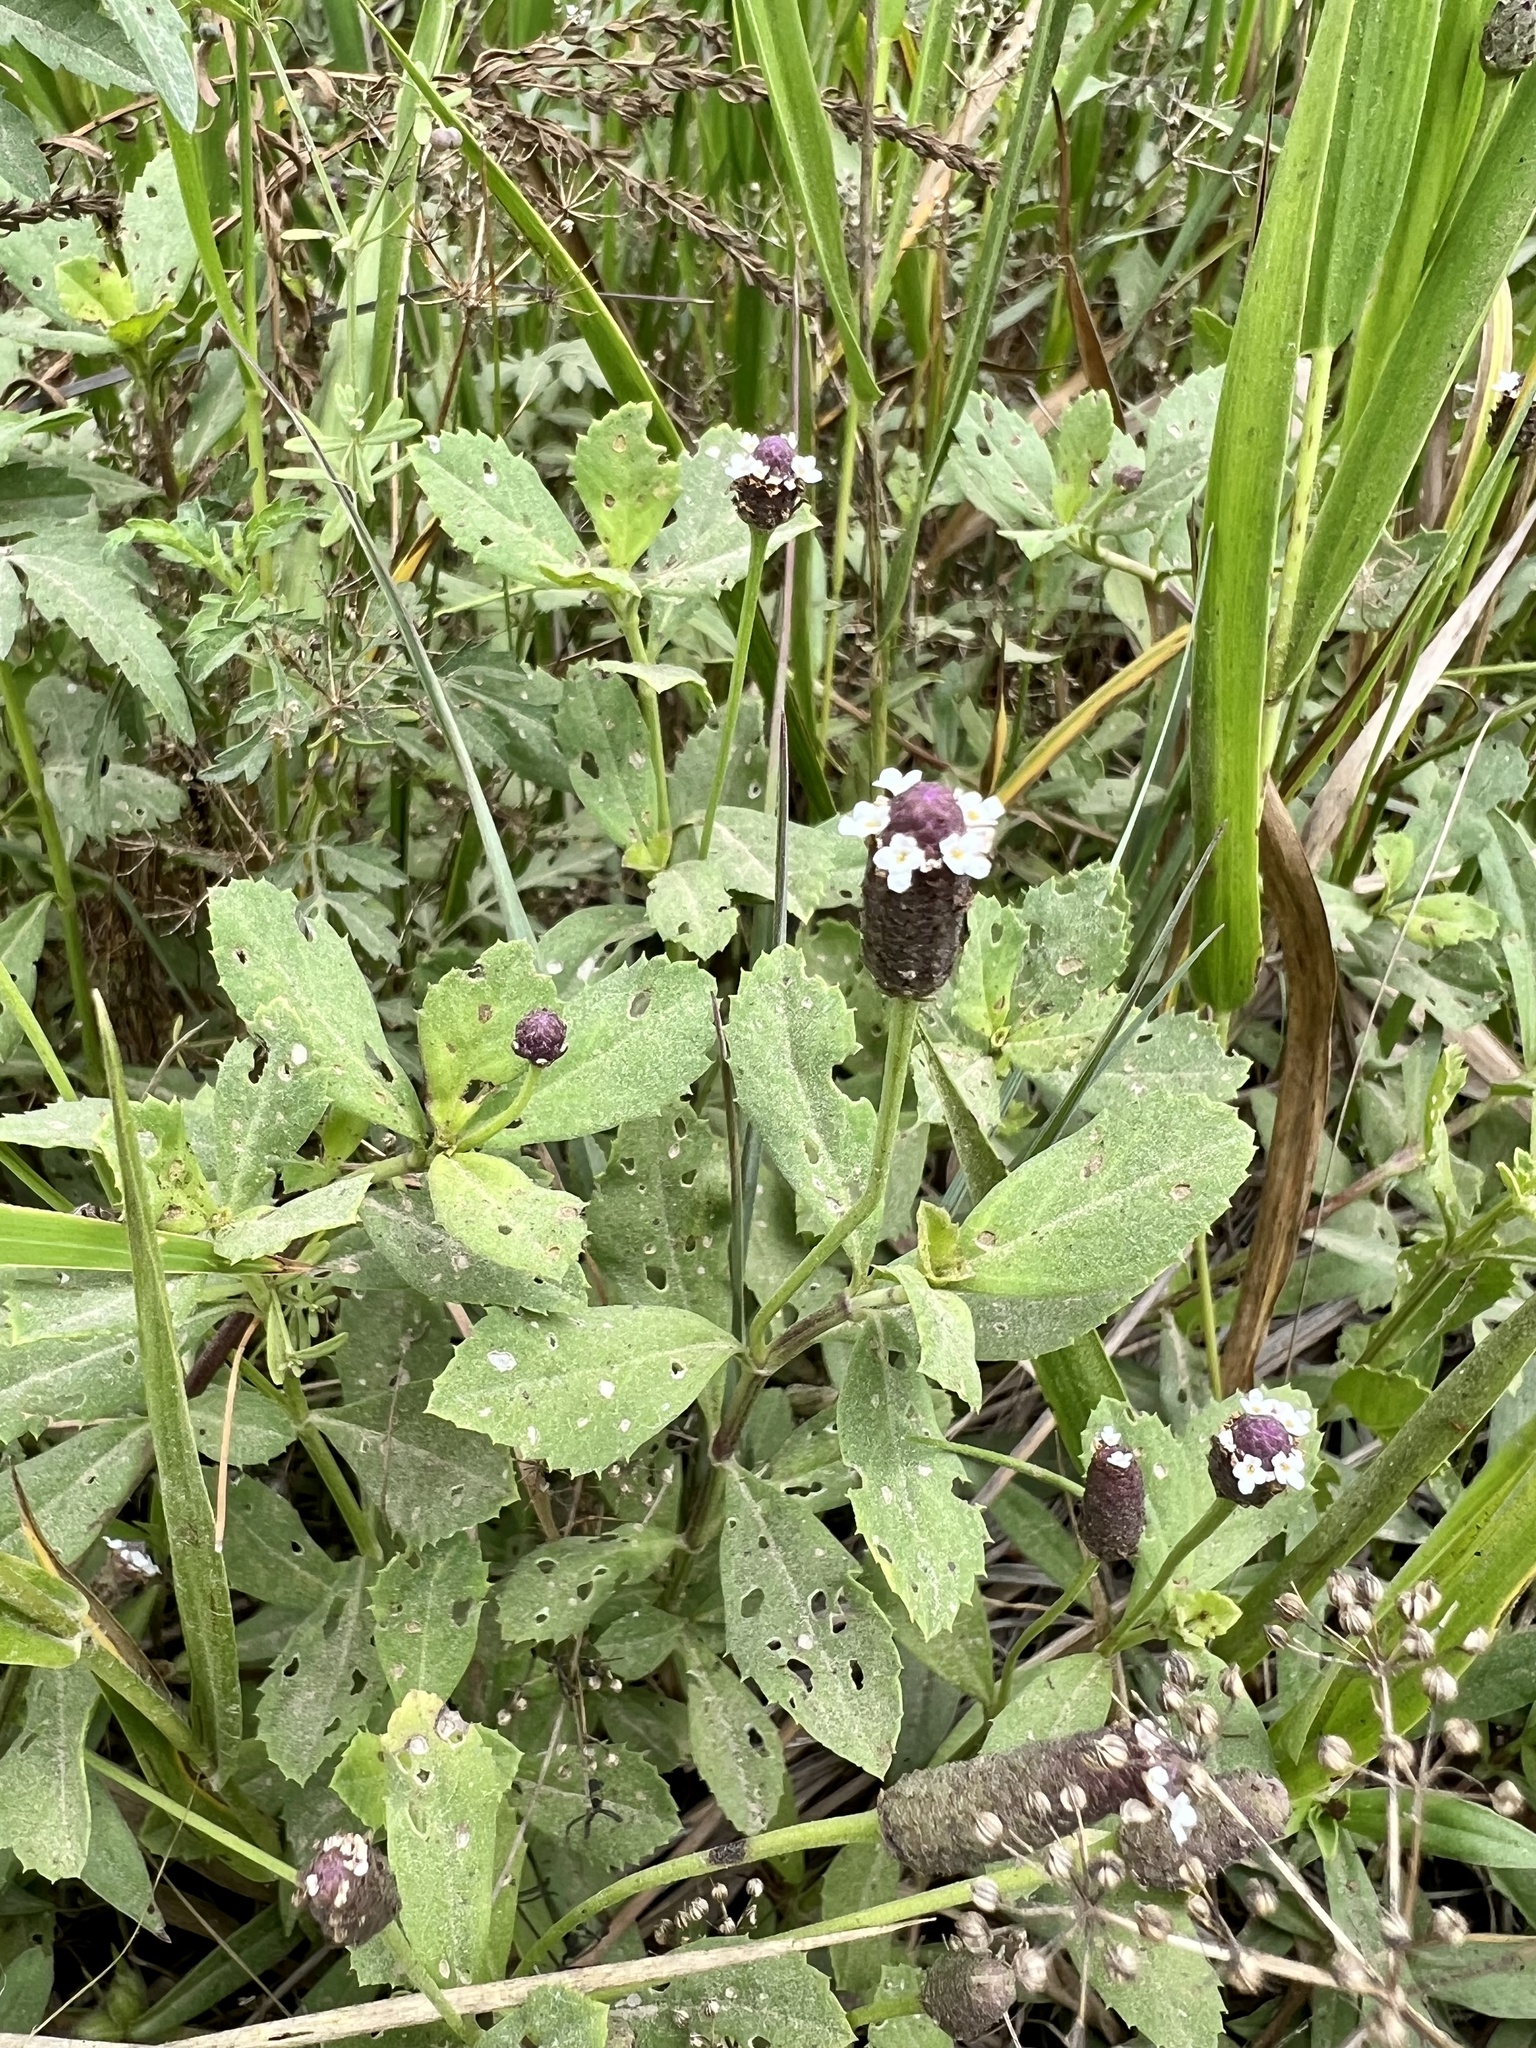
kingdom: Plantae
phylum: Tracheophyta
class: Magnoliopsida
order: Lamiales
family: Verbenaceae
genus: Phyla
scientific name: Phyla nodiflora
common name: Frogfruit
